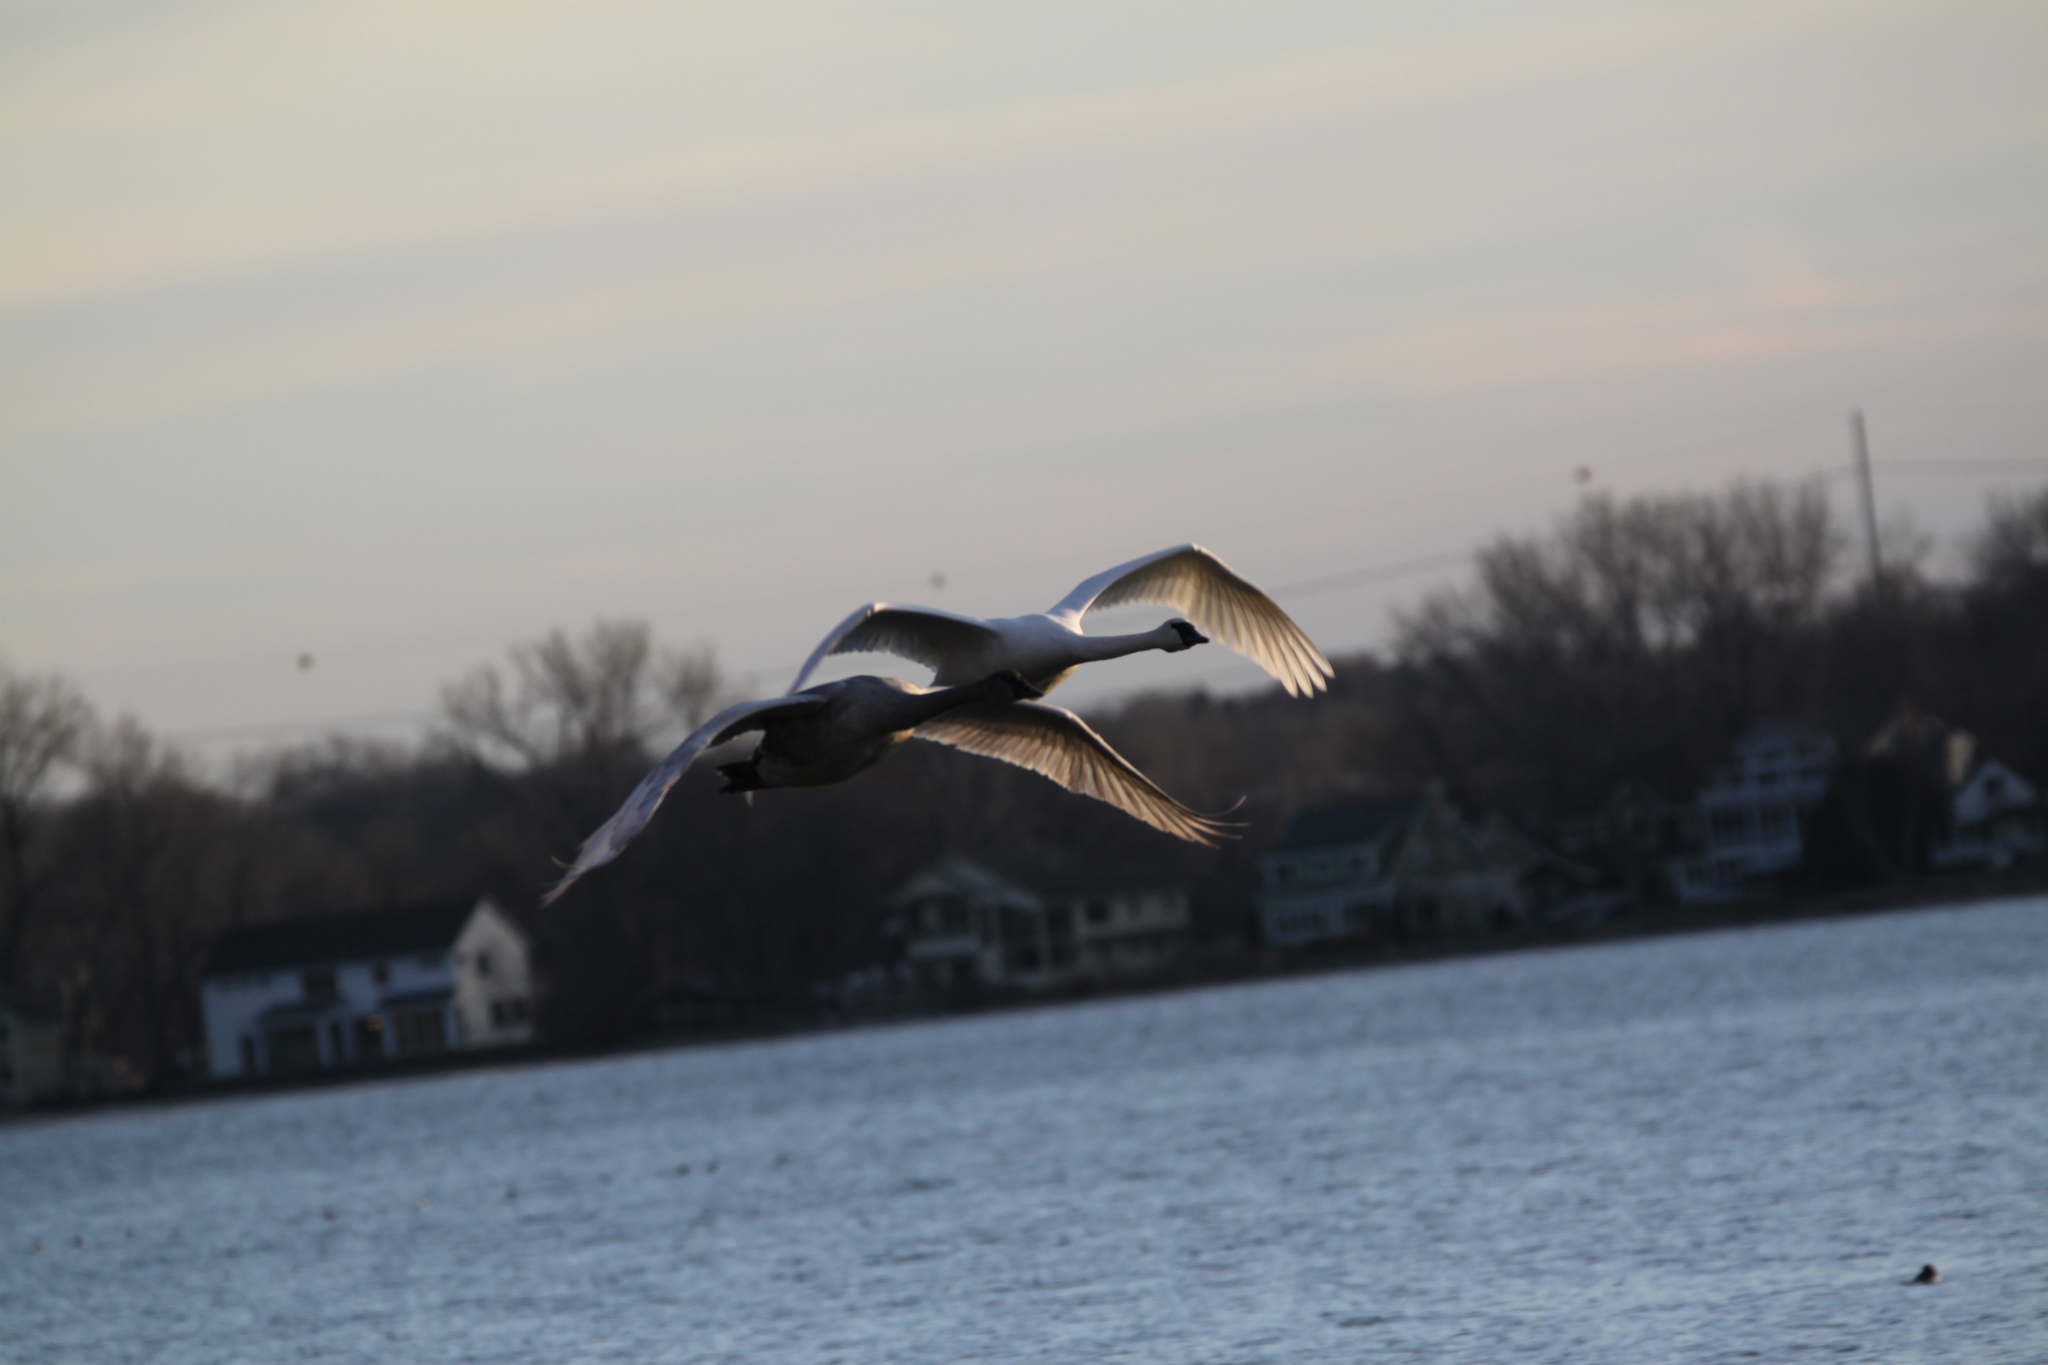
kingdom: Animalia
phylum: Chordata
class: Aves
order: Anseriformes
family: Anatidae
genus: Cygnus
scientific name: Cygnus buccinator
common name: Trumpeter swan
